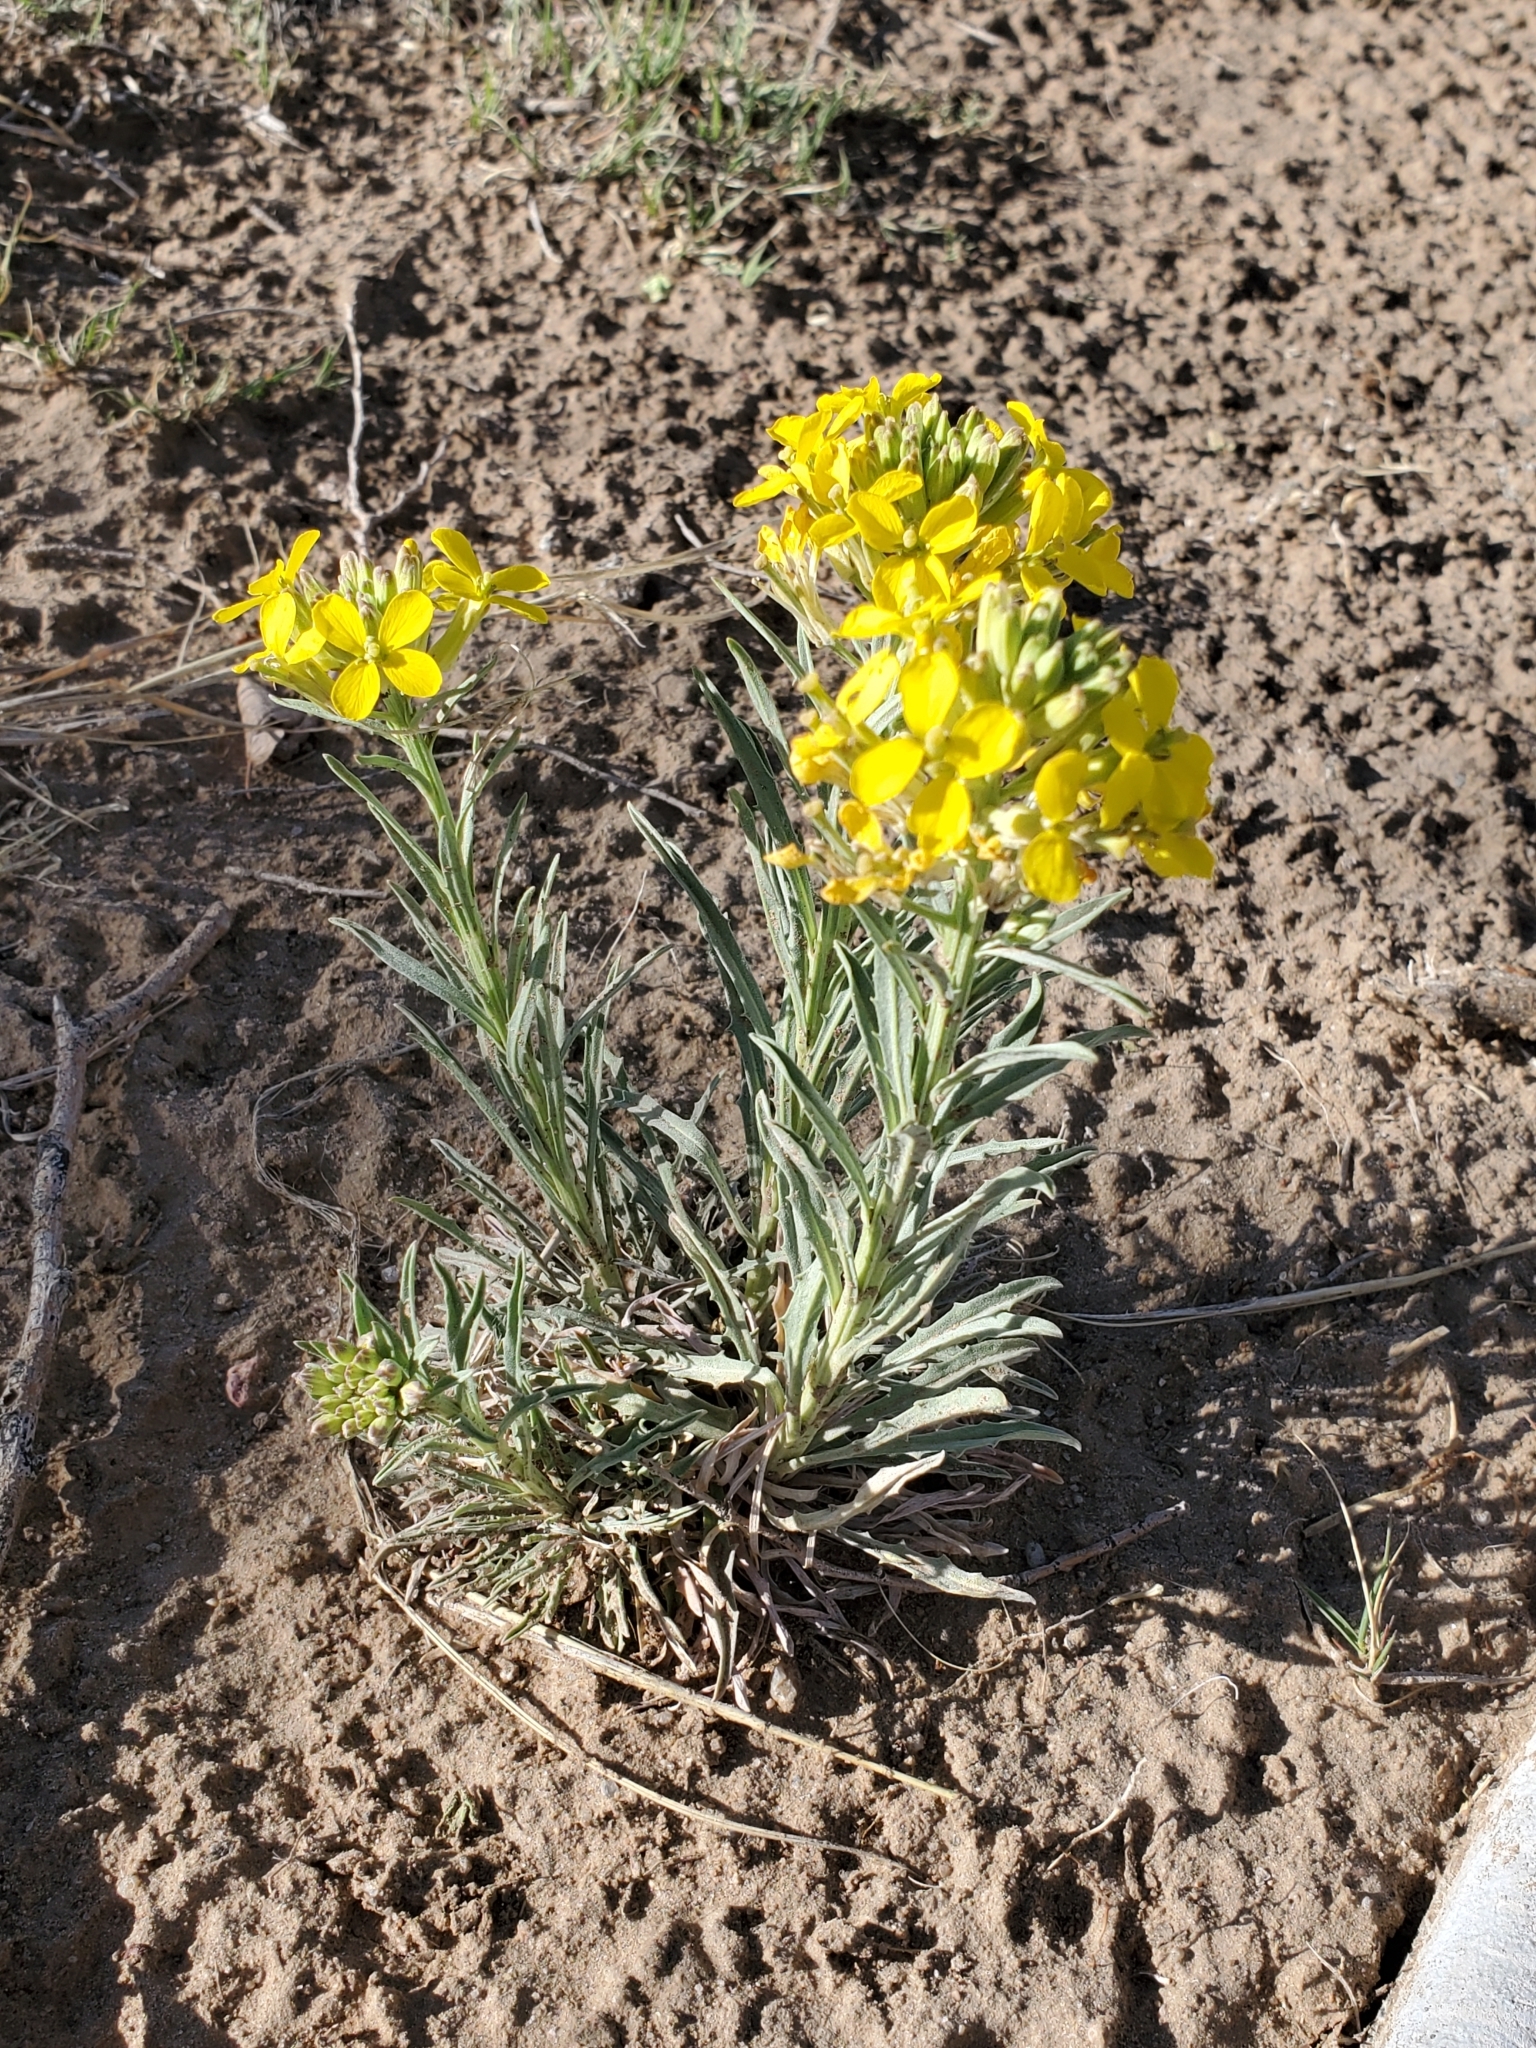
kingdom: Plantae
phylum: Tracheophyta
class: Magnoliopsida
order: Brassicales
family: Brassicaceae
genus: Erysimum
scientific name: Erysimum asperum
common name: Western wallflower
